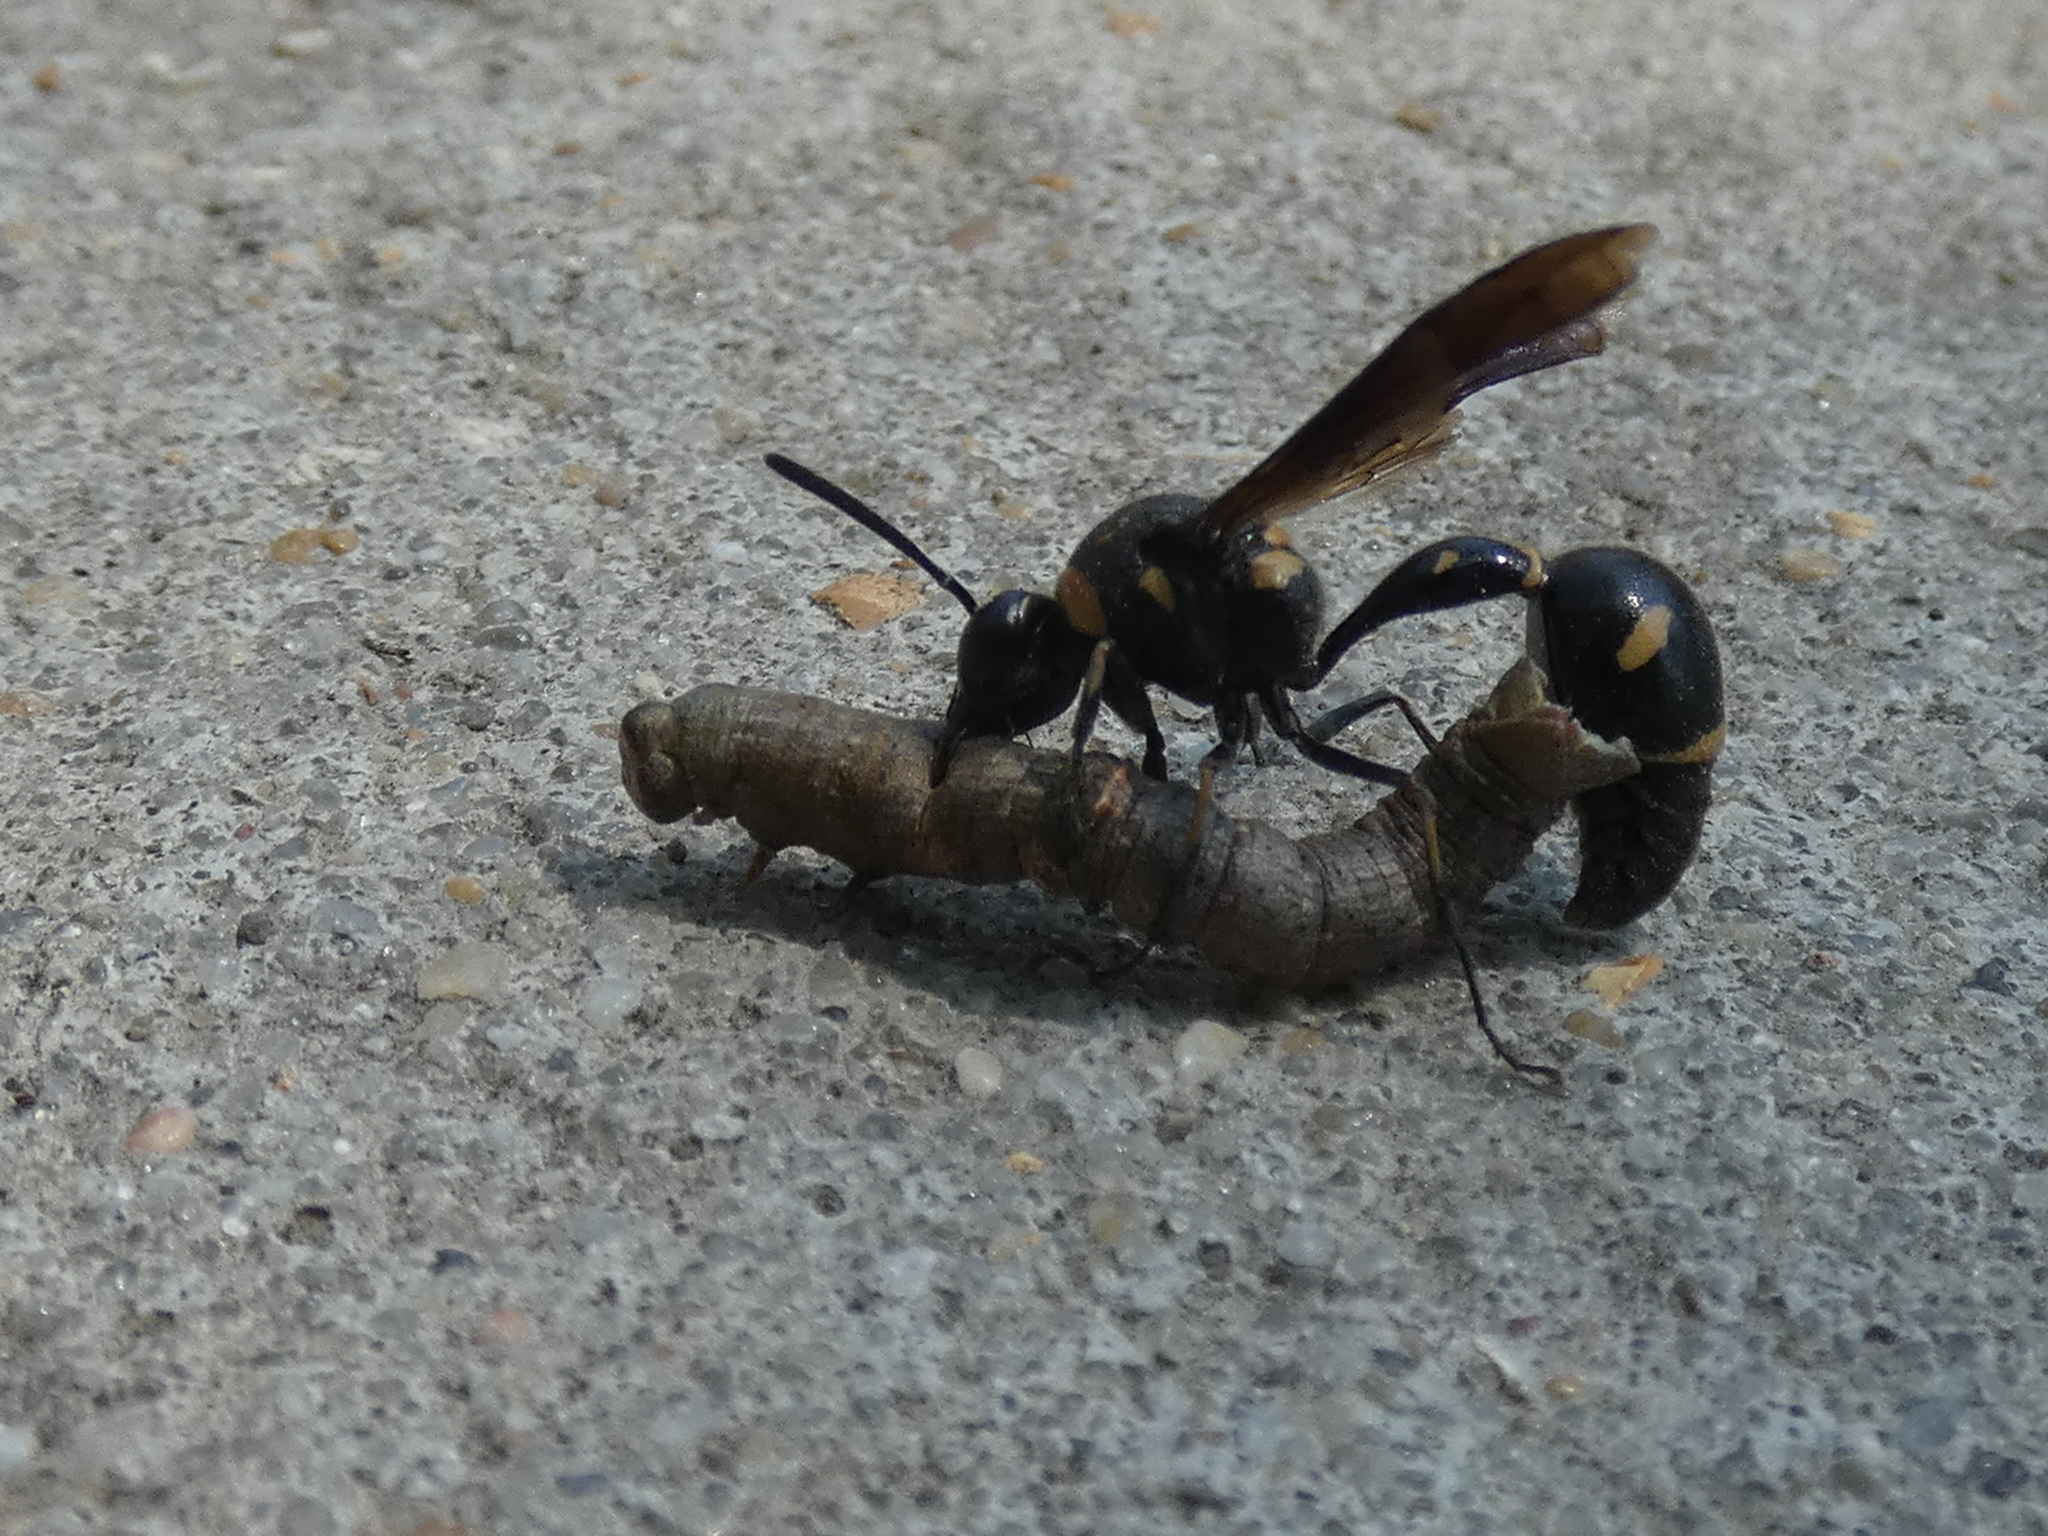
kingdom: Animalia
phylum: Arthropoda
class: Insecta
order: Hymenoptera
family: Vespidae
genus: Eumenes
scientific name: Eumenes fraternus
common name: Fraternal potter wasp
